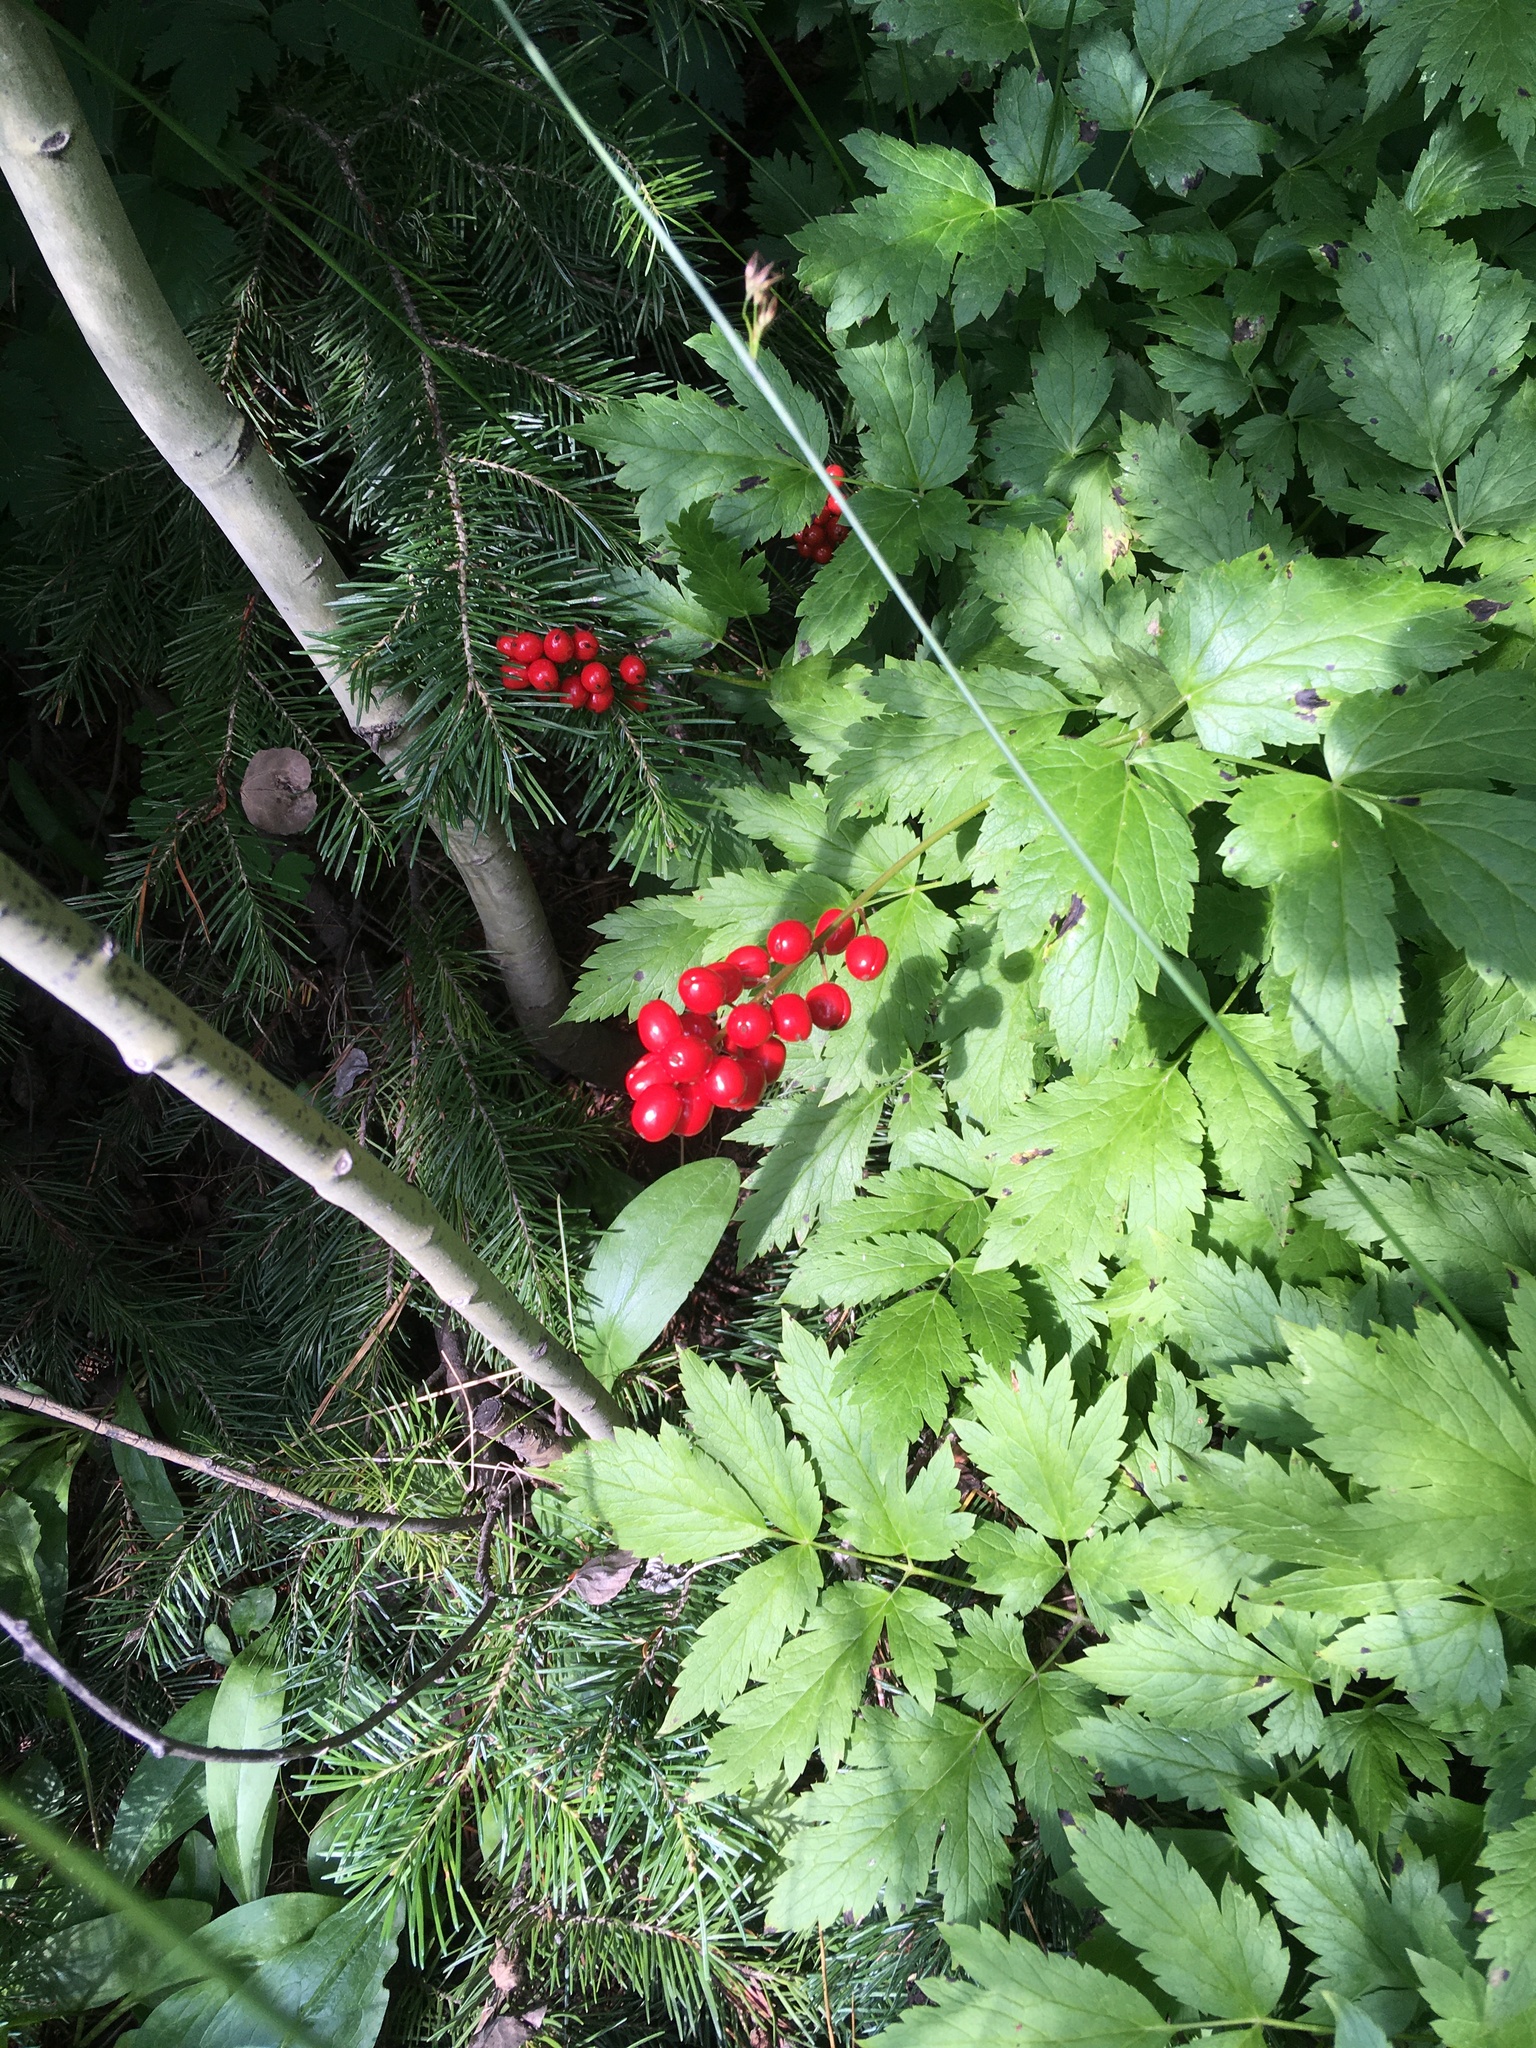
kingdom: Plantae
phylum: Tracheophyta
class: Magnoliopsida
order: Ranunculales
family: Ranunculaceae
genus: Actaea
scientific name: Actaea rubra
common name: Red baneberry
